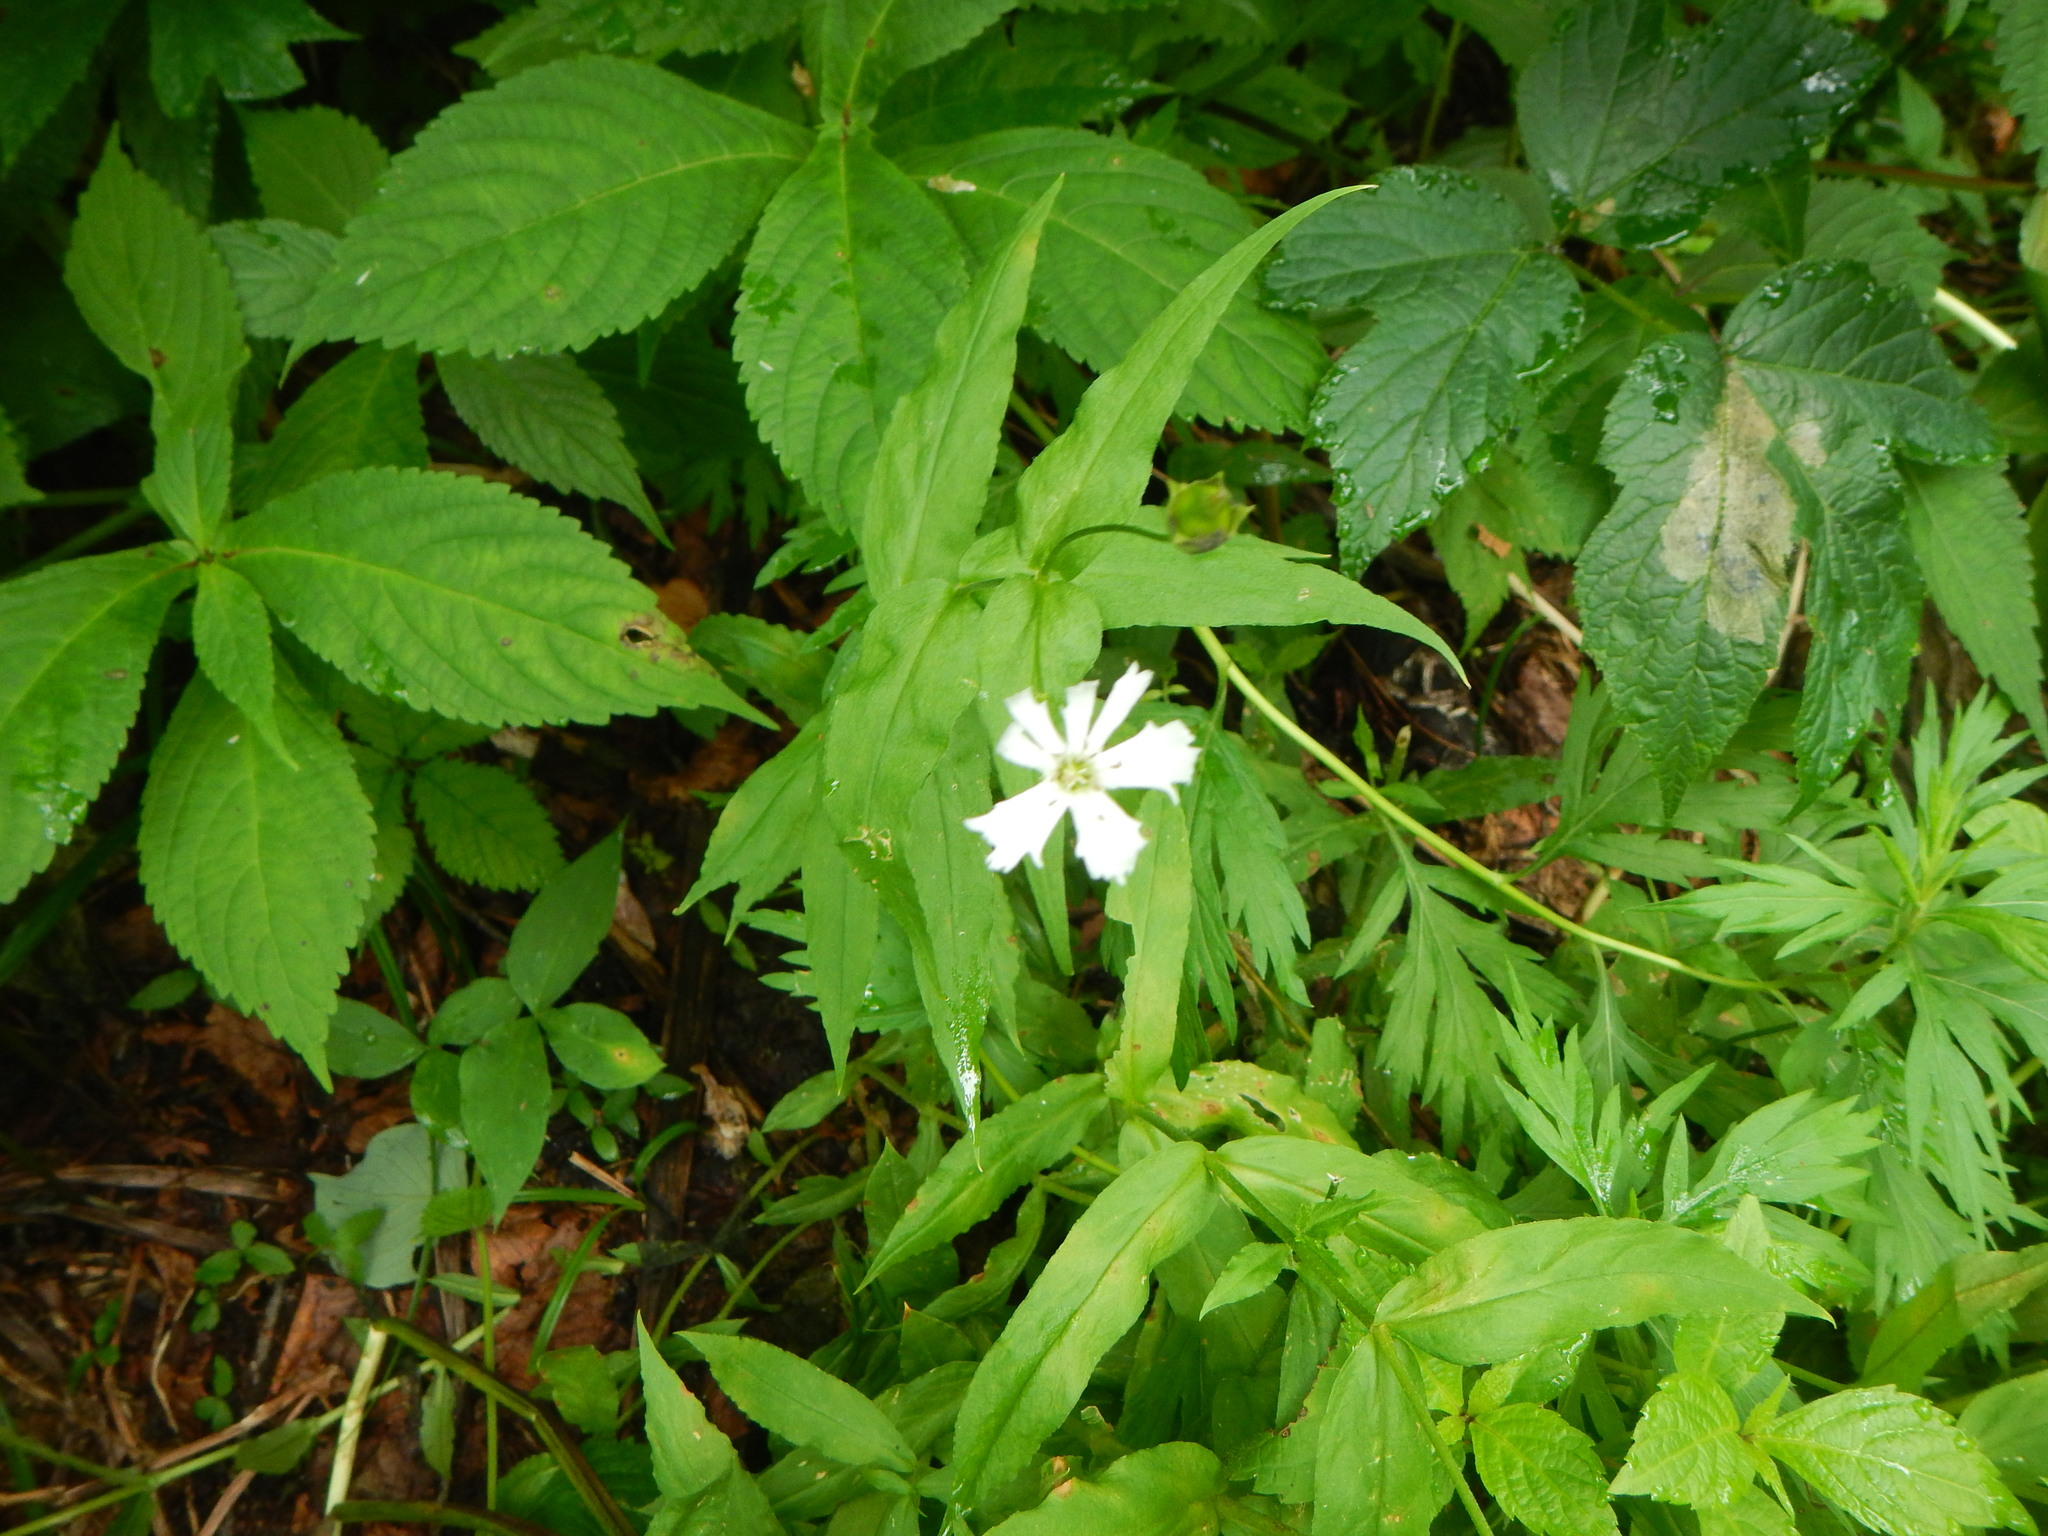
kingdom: Plantae
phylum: Tracheophyta
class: Magnoliopsida
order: Caryophyllales
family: Caryophyllaceae
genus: Silene
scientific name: Silene gracillima
